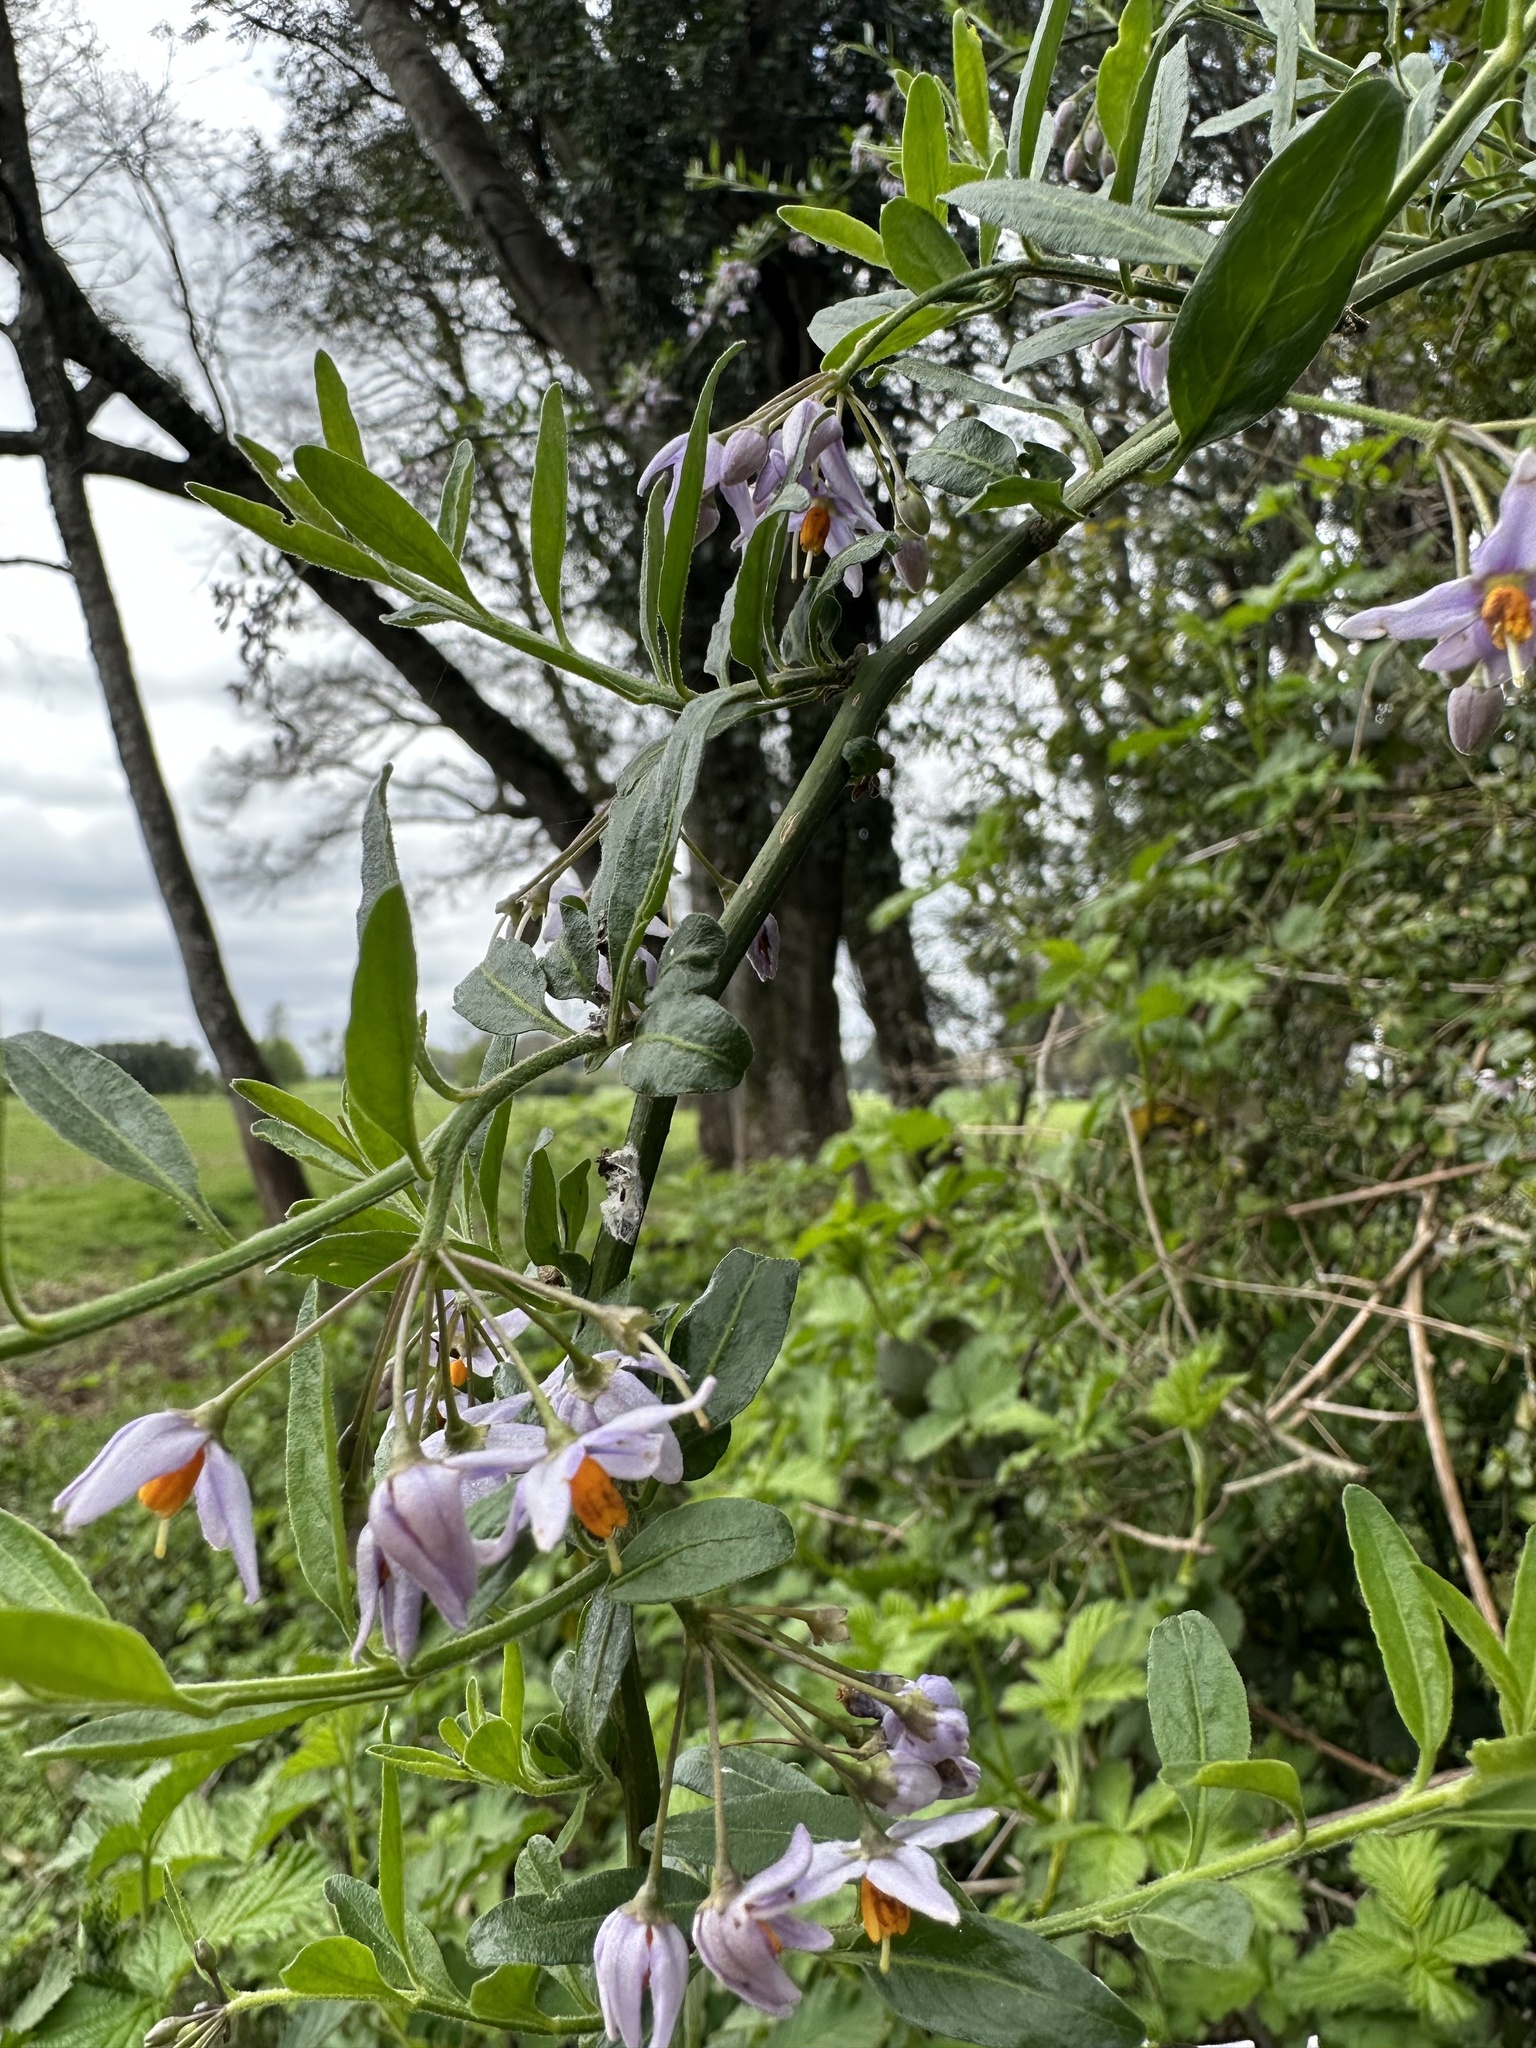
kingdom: Plantae
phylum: Tracheophyta
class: Magnoliopsida
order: Solanales
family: Solanaceae
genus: Solanum
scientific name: Solanum valdiviense
